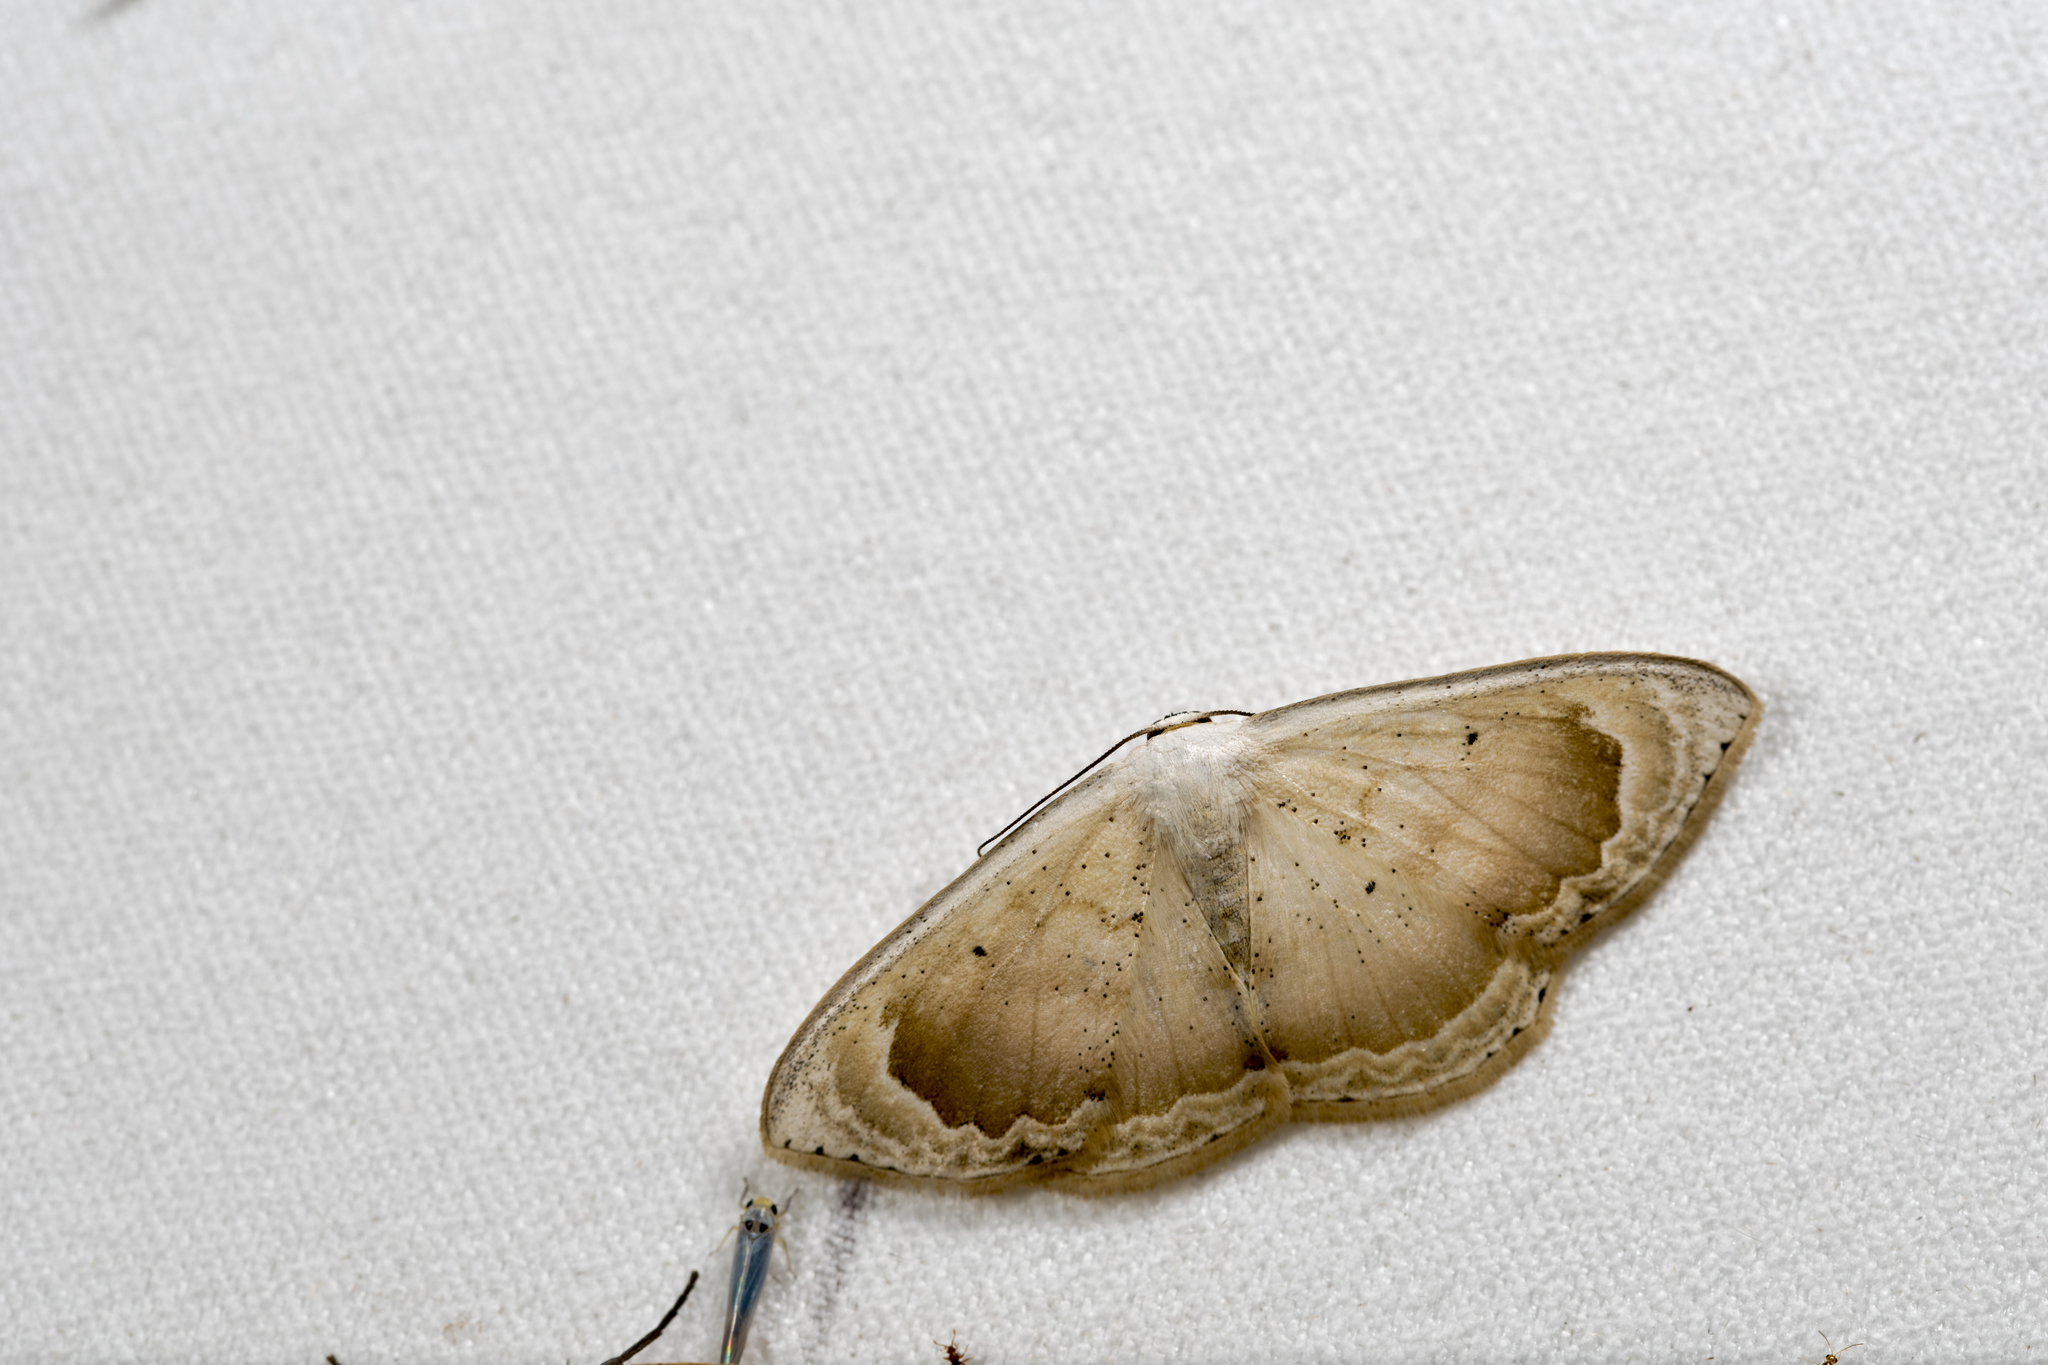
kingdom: Animalia
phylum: Arthropoda
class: Insecta
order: Lepidoptera
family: Geometridae
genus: Somatina
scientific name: Somatina rosacea
